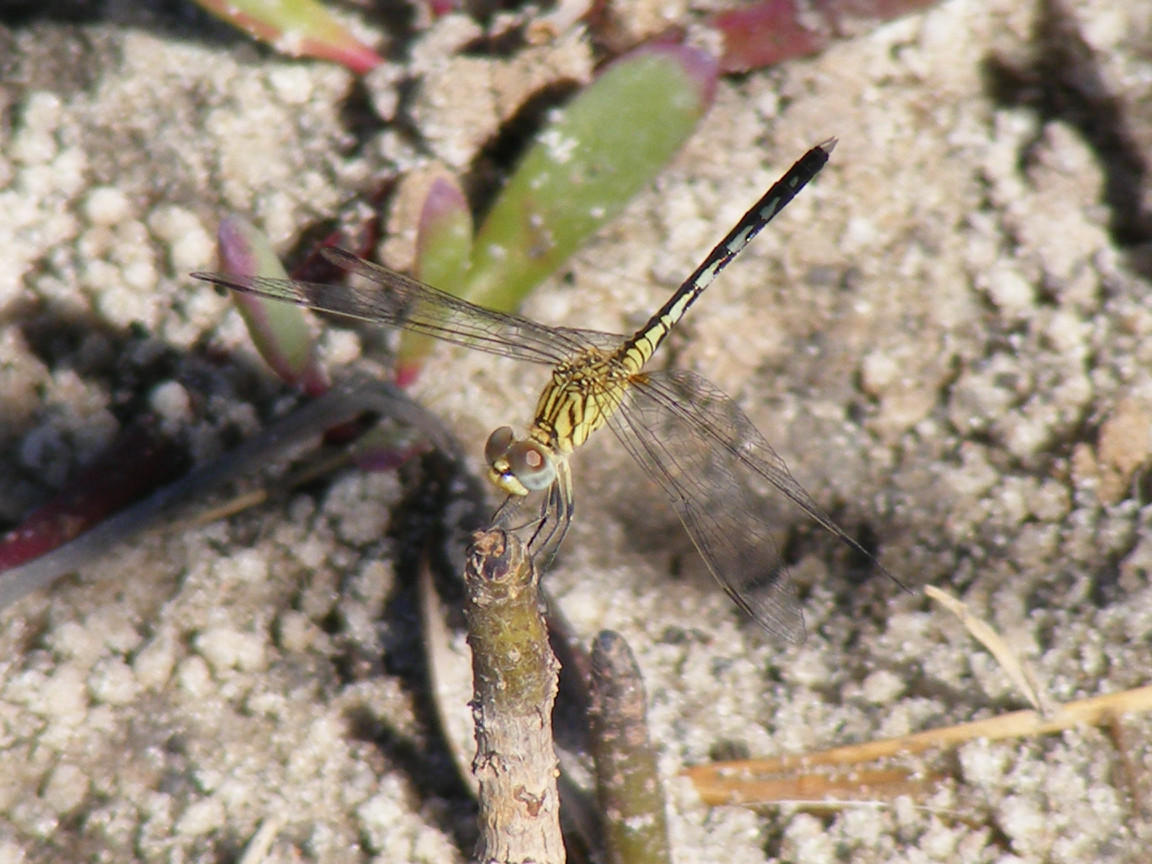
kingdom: Animalia
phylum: Arthropoda
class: Insecta
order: Odonata
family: Libellulidae
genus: Diplacodes
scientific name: Diplacodes lefebvrii
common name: Black percher
